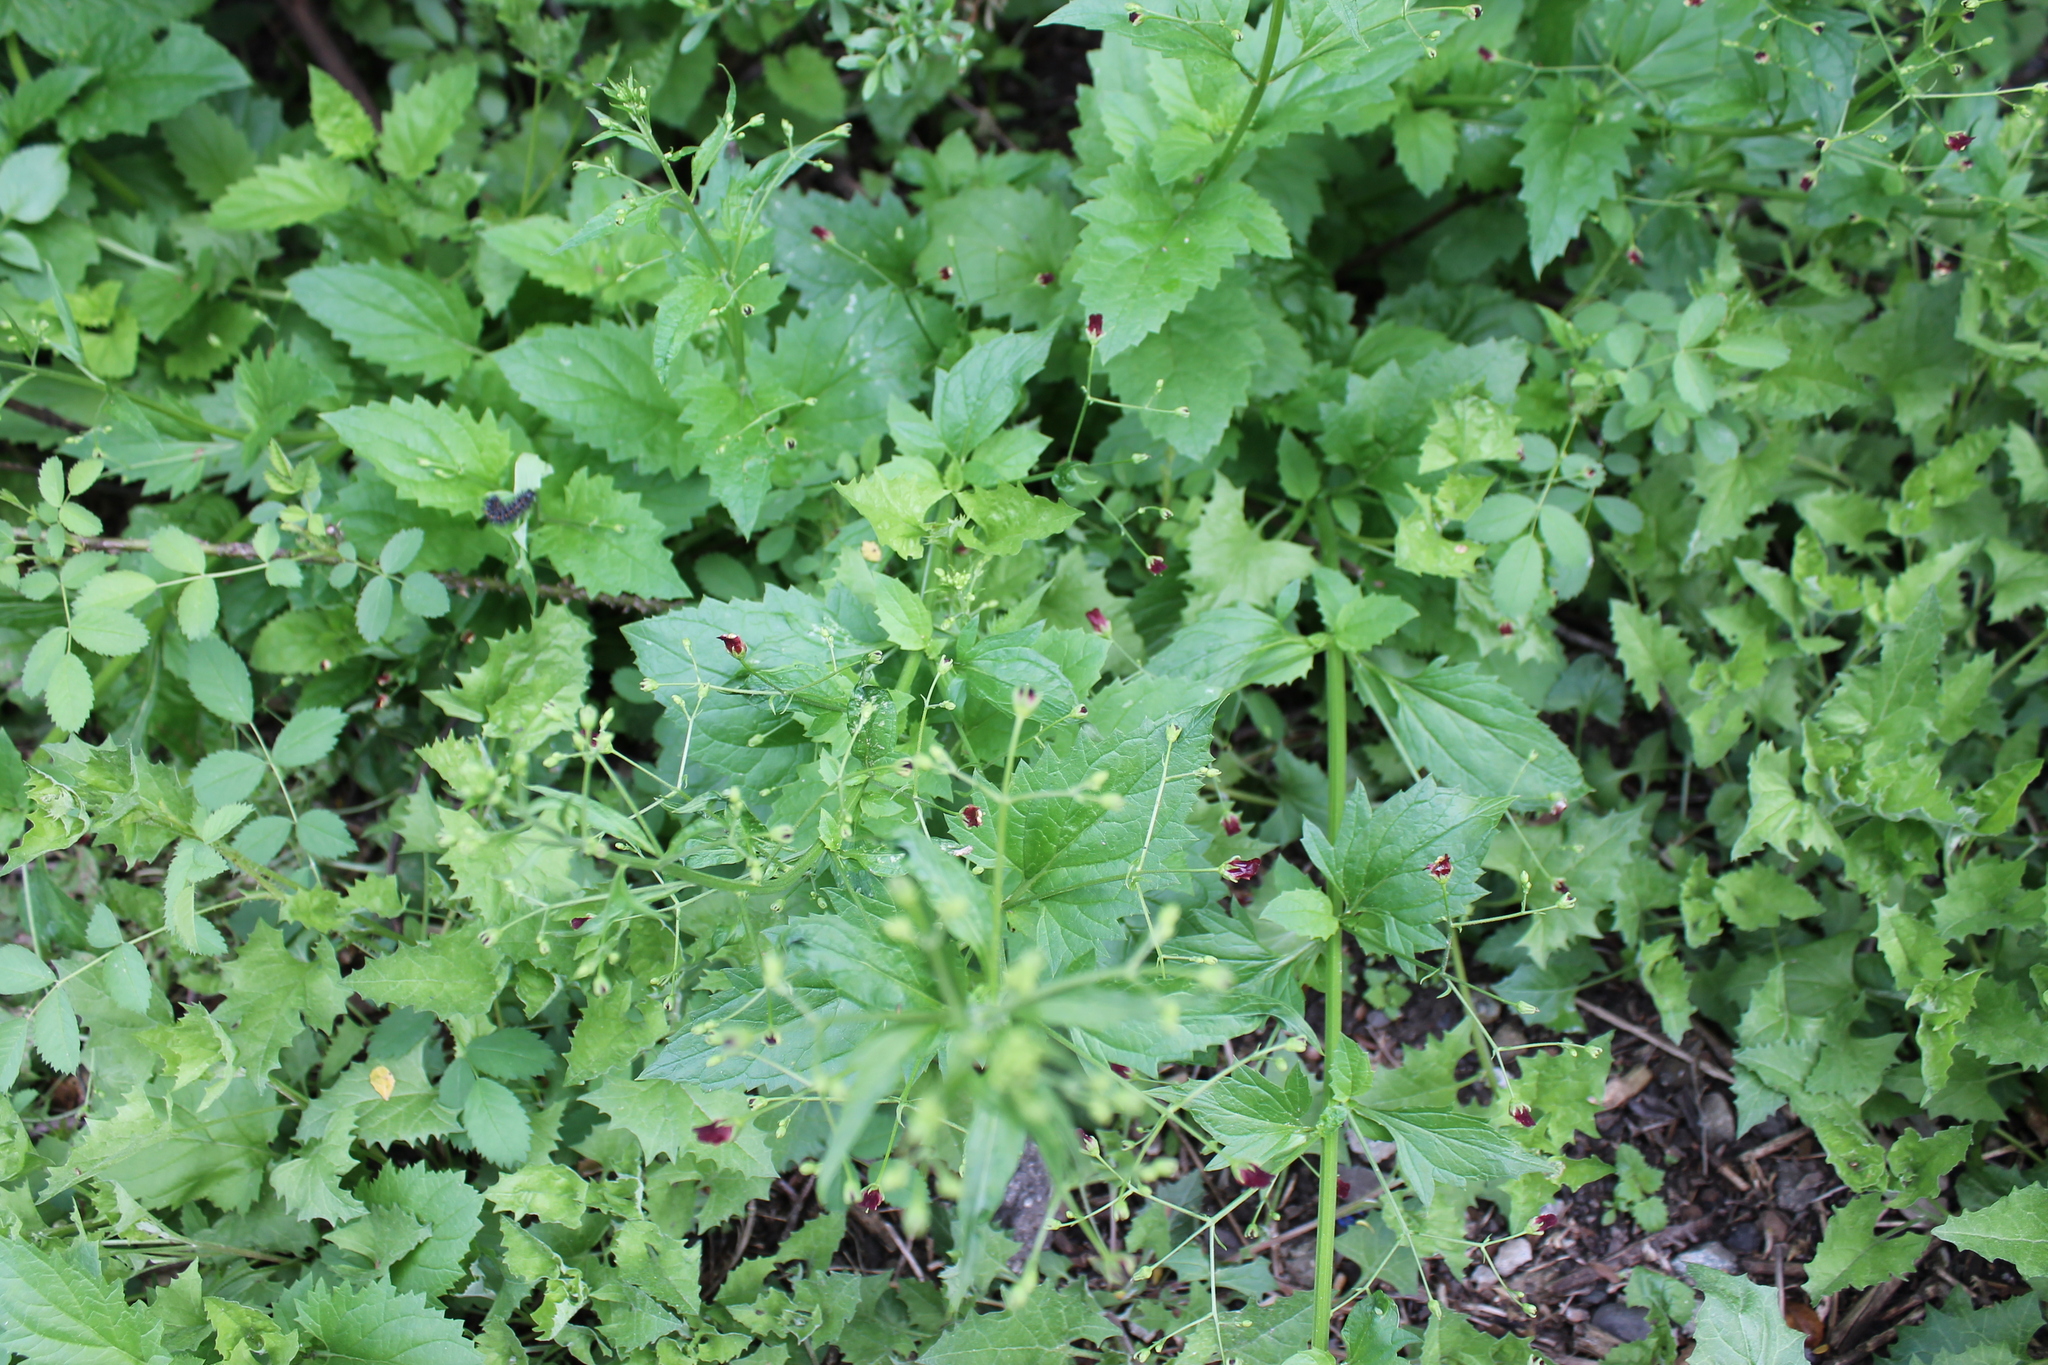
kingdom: Plantae
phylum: Tracheophyta
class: Magnoliopsida
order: Lamiales
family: Scrophulariaceae
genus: Scrophularia
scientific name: Scrophularia californica
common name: California figwort
